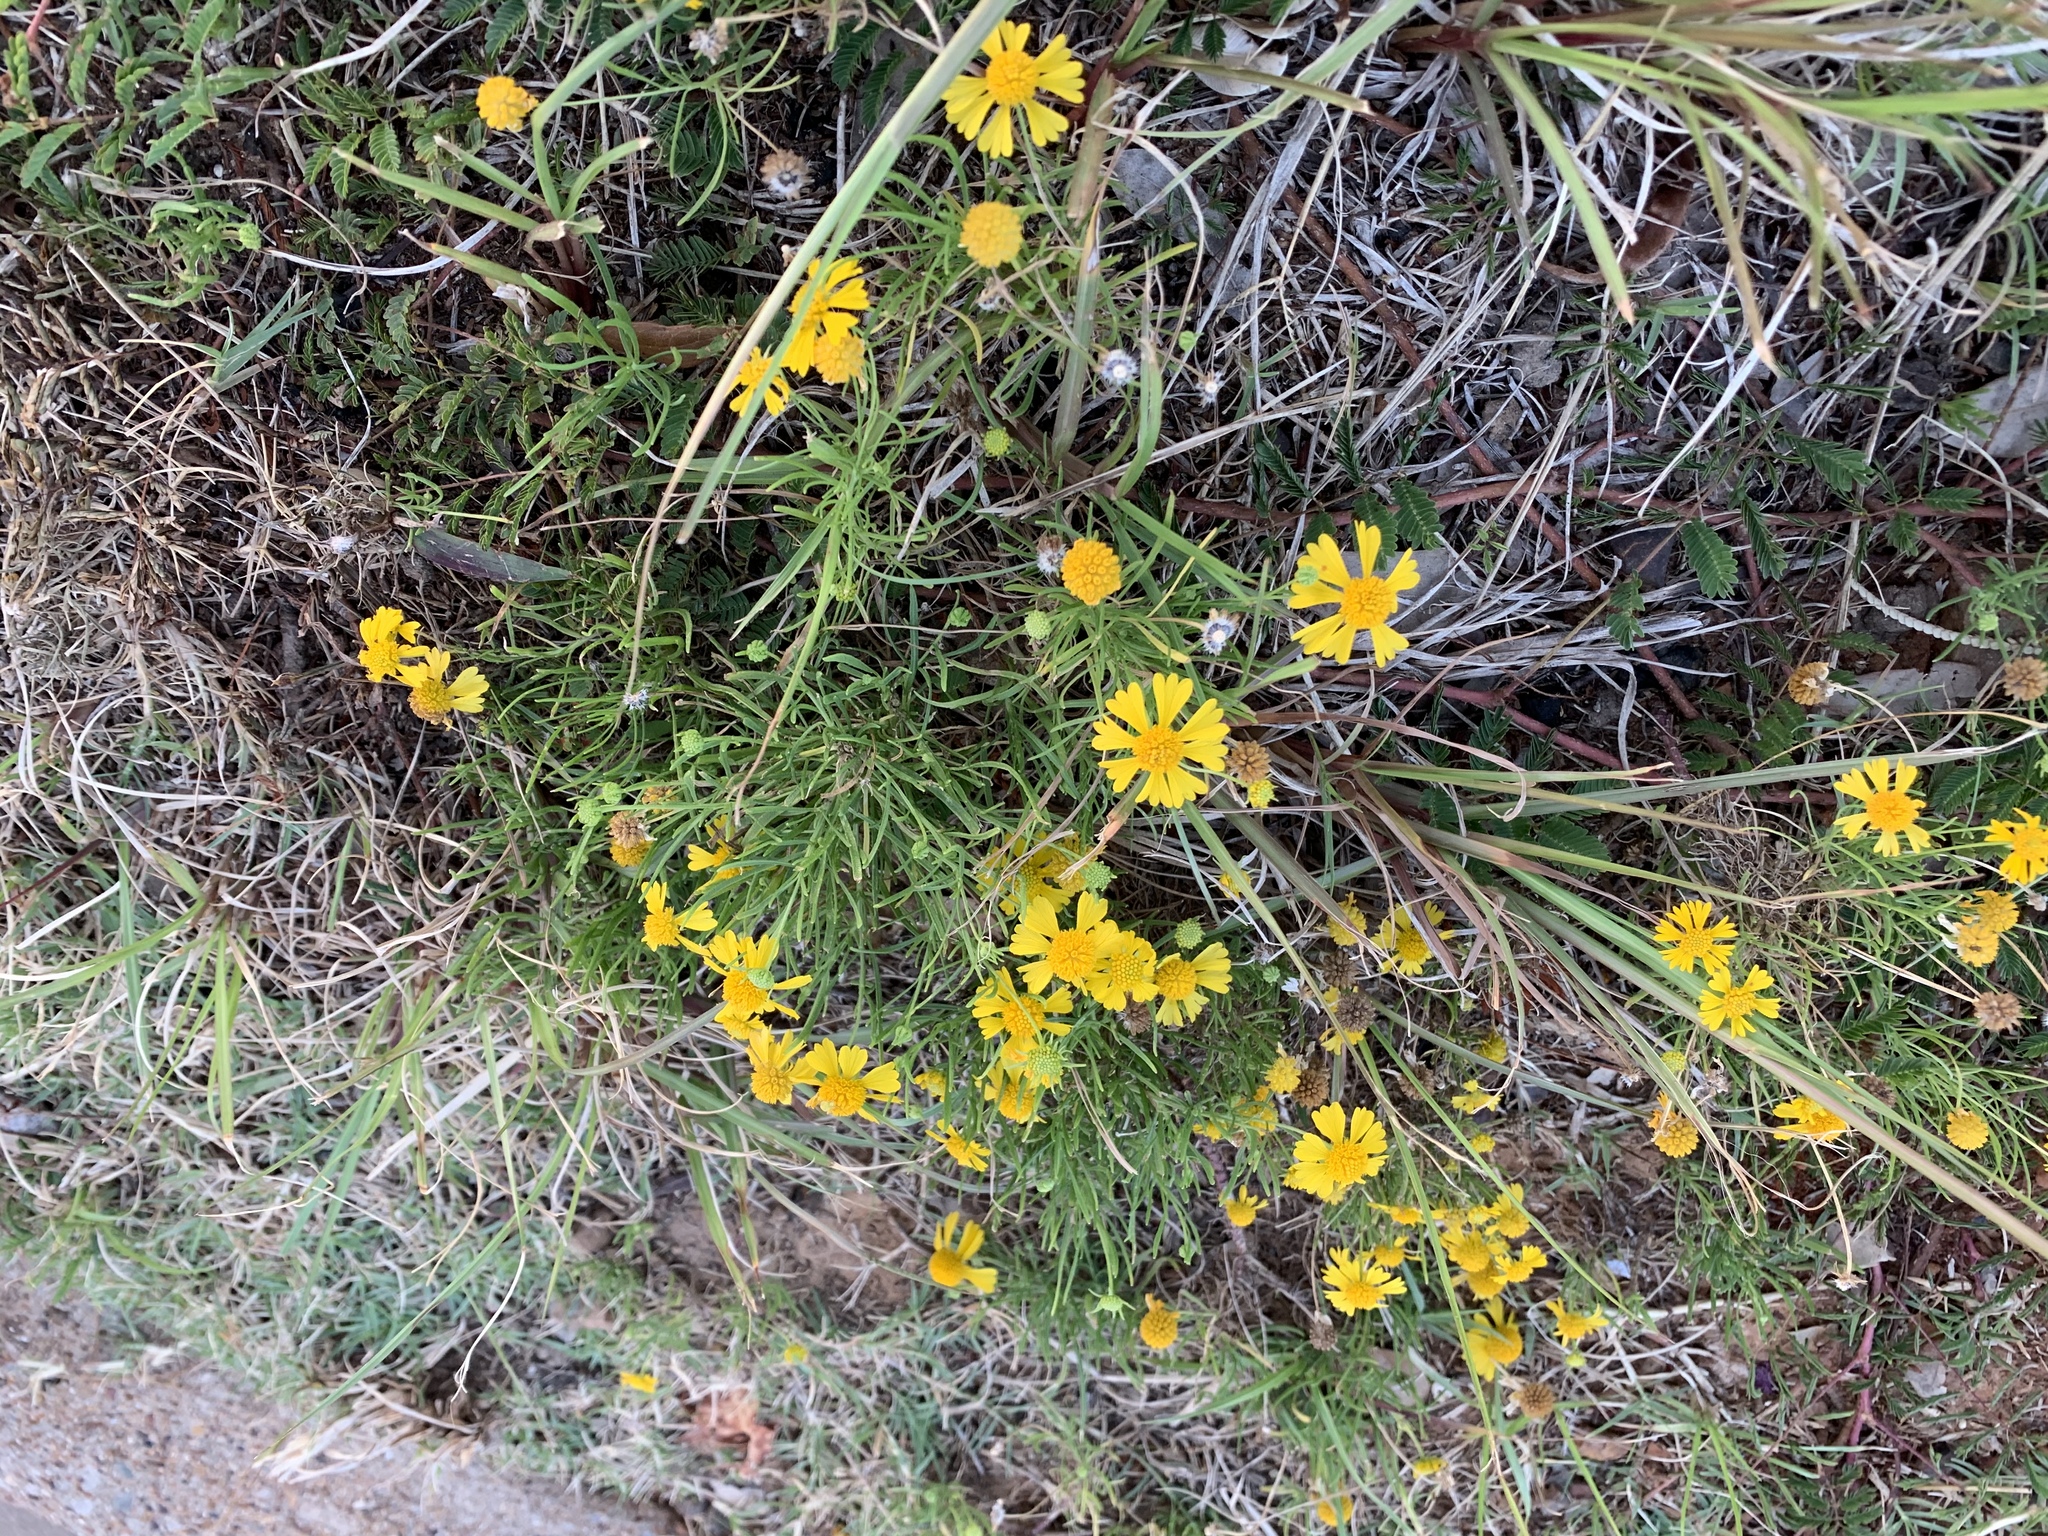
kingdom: Plantae
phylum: Tracheophyta
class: Magnoliopsida
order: Asterales
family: Asteraceae
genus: Helenium
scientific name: Helenium amarum
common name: Bitter sneezeweed
